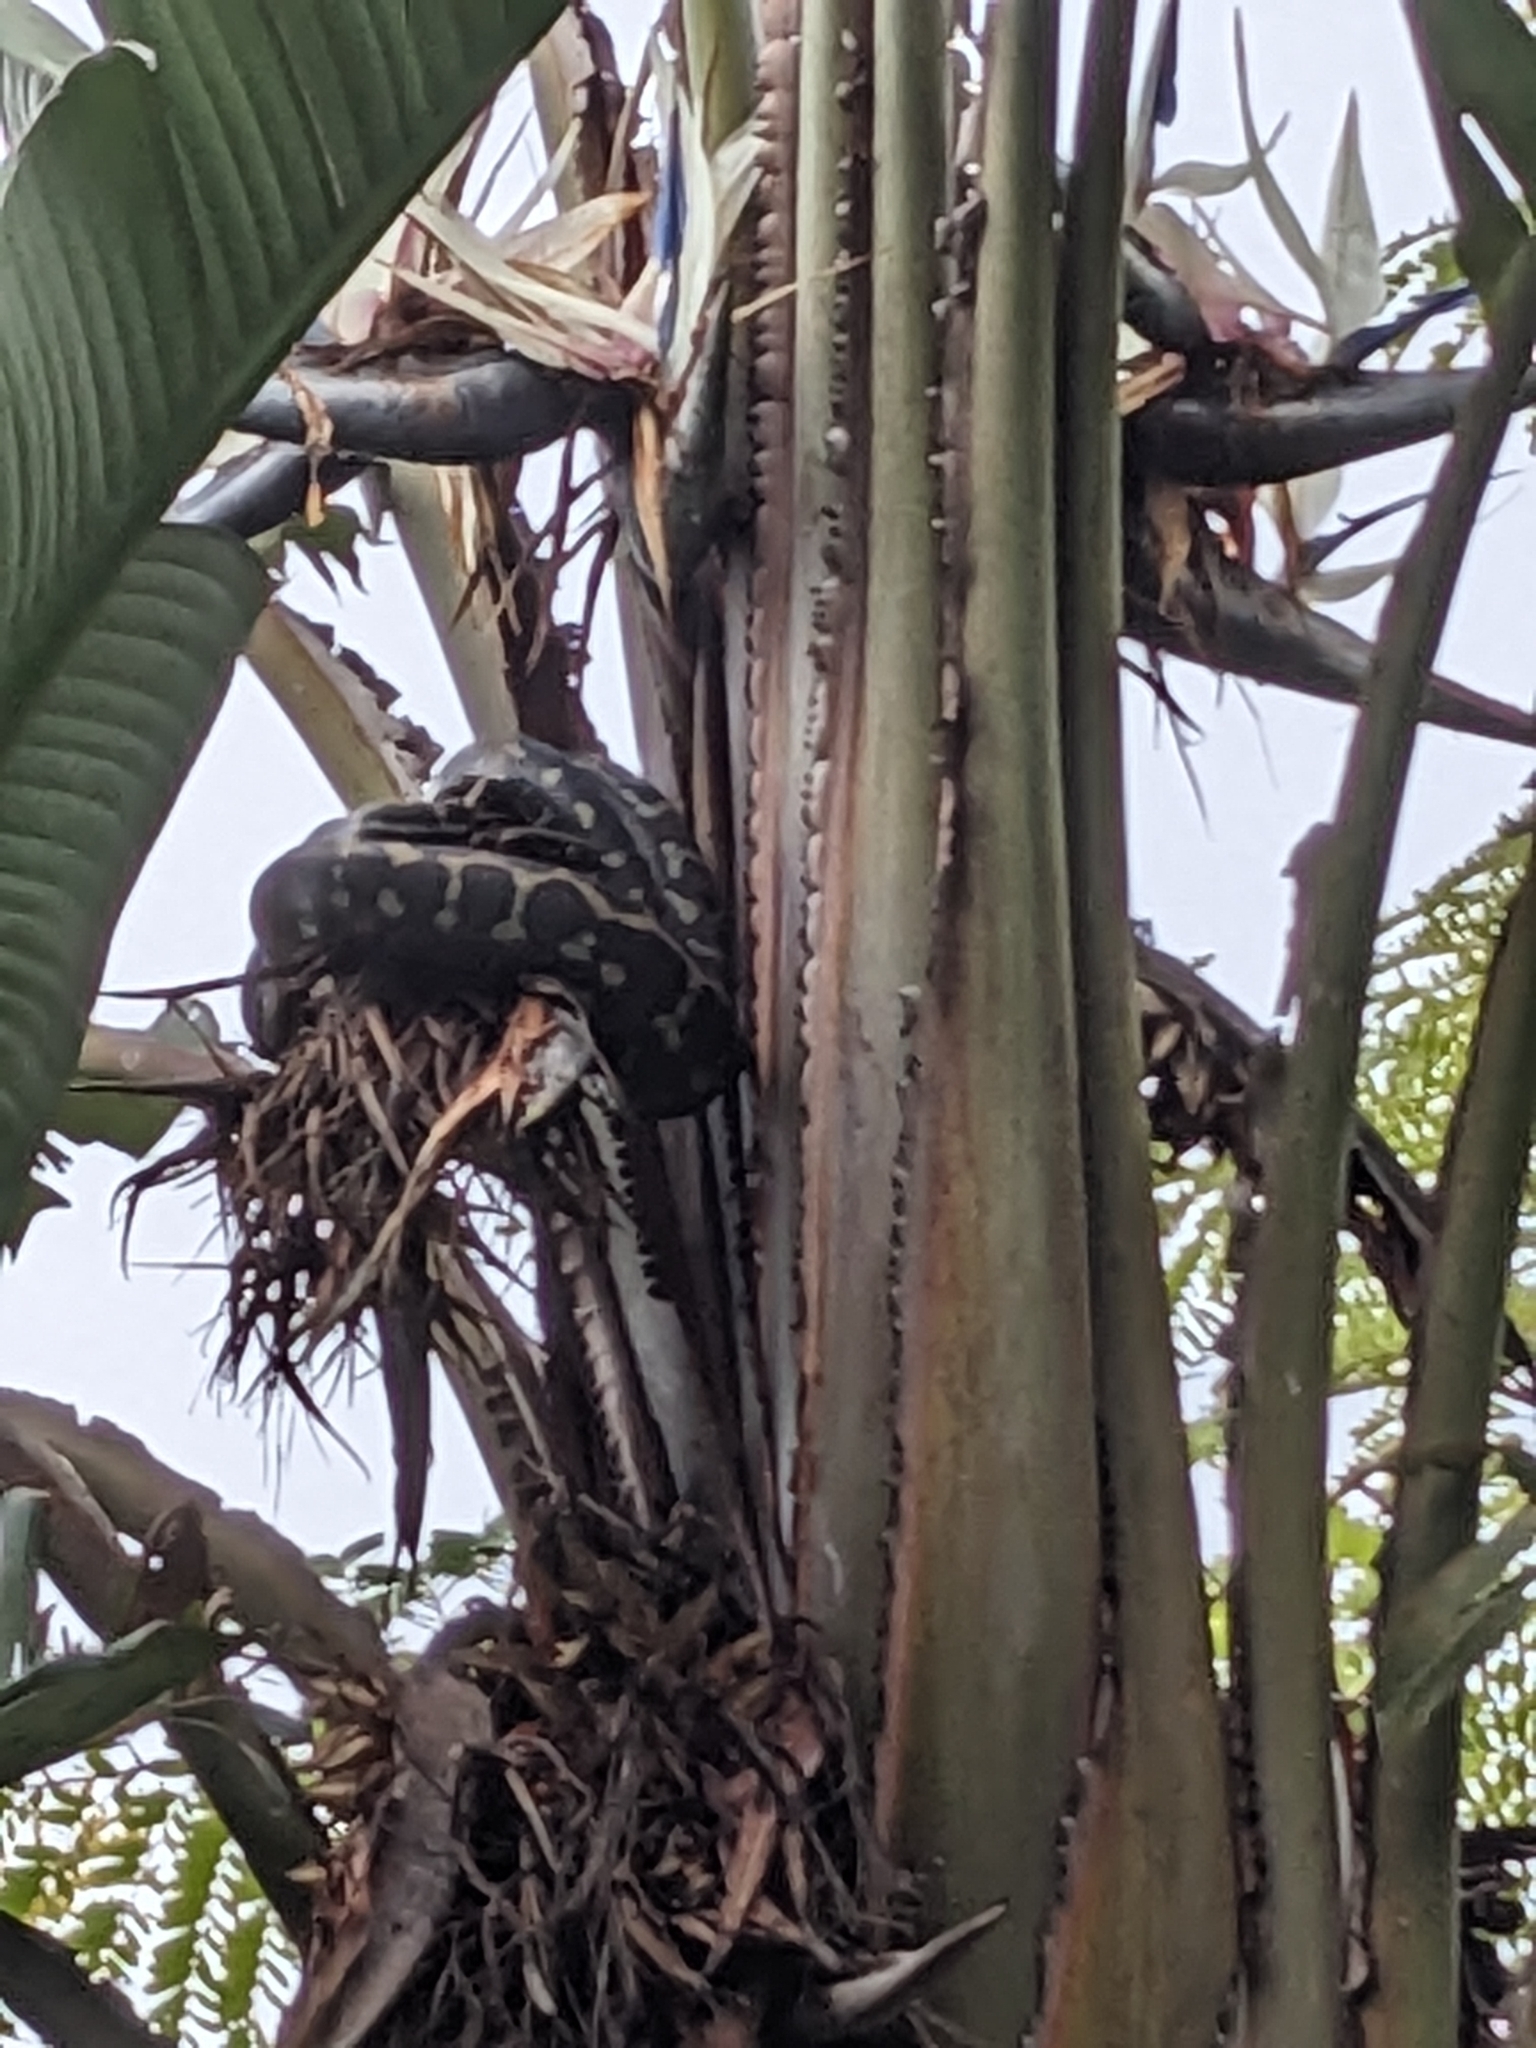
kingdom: Animalia
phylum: Chordata
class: Squamata
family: Pythonidae
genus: Morelia
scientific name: Morelia spilota
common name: Carpet python
